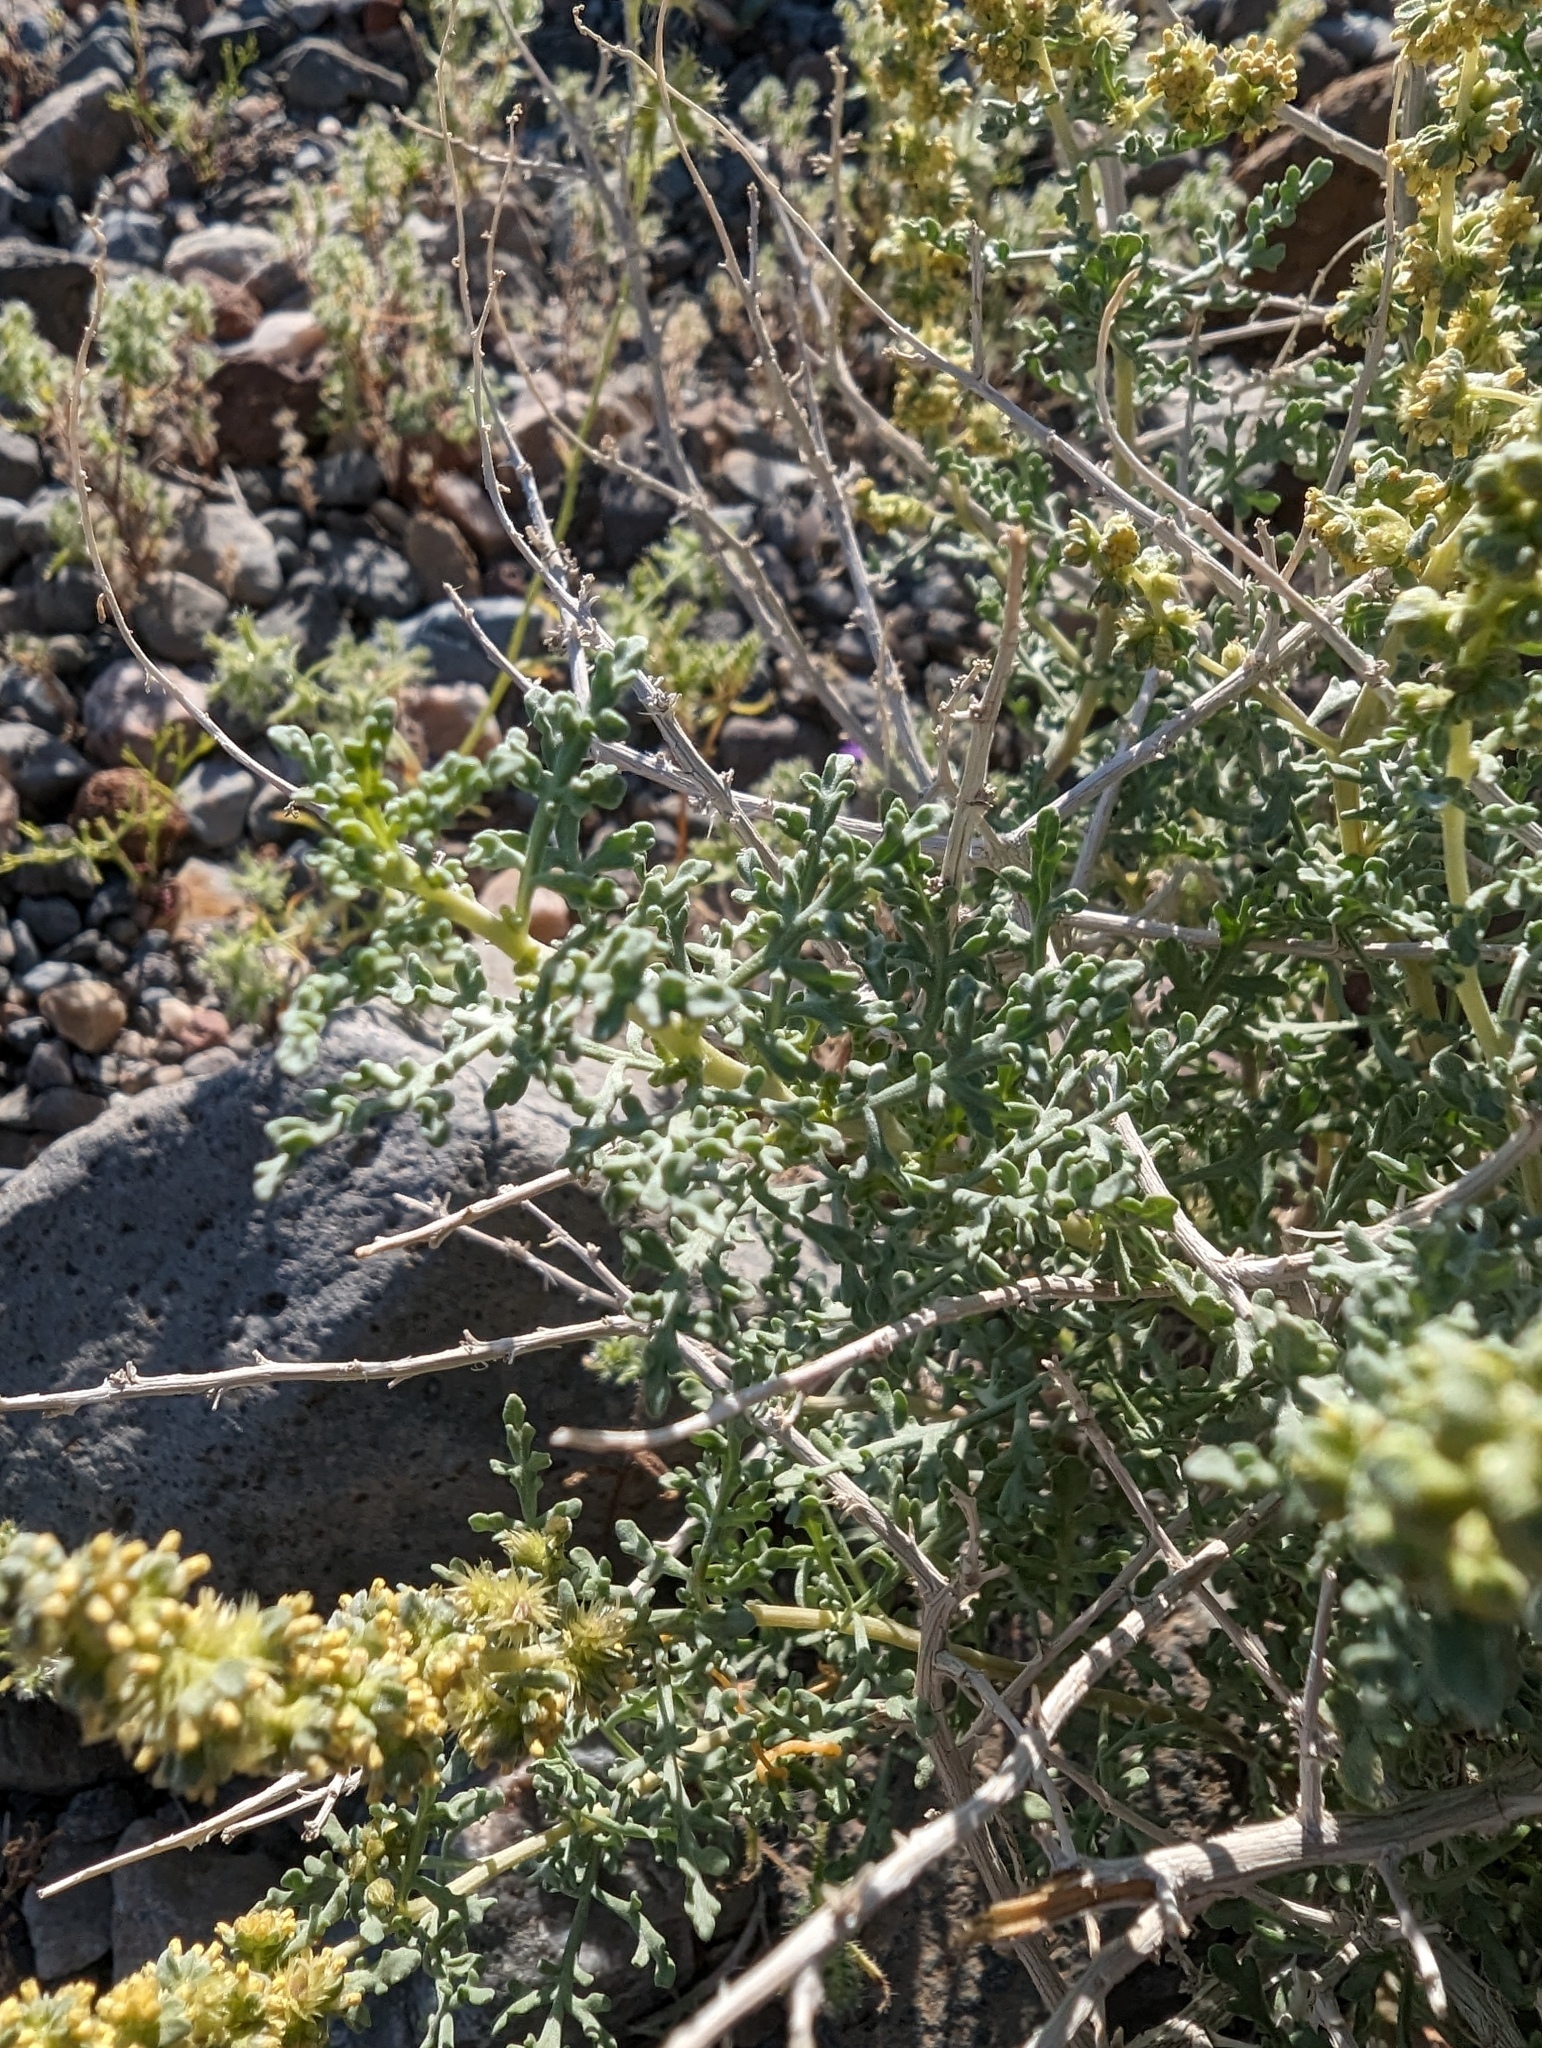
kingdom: Plantae
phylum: Tracheophyta
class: Magnoliopsida
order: Asterales
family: Asteraceae
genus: Ambrosia
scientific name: Ambrosia dumosa
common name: Bur-sage
